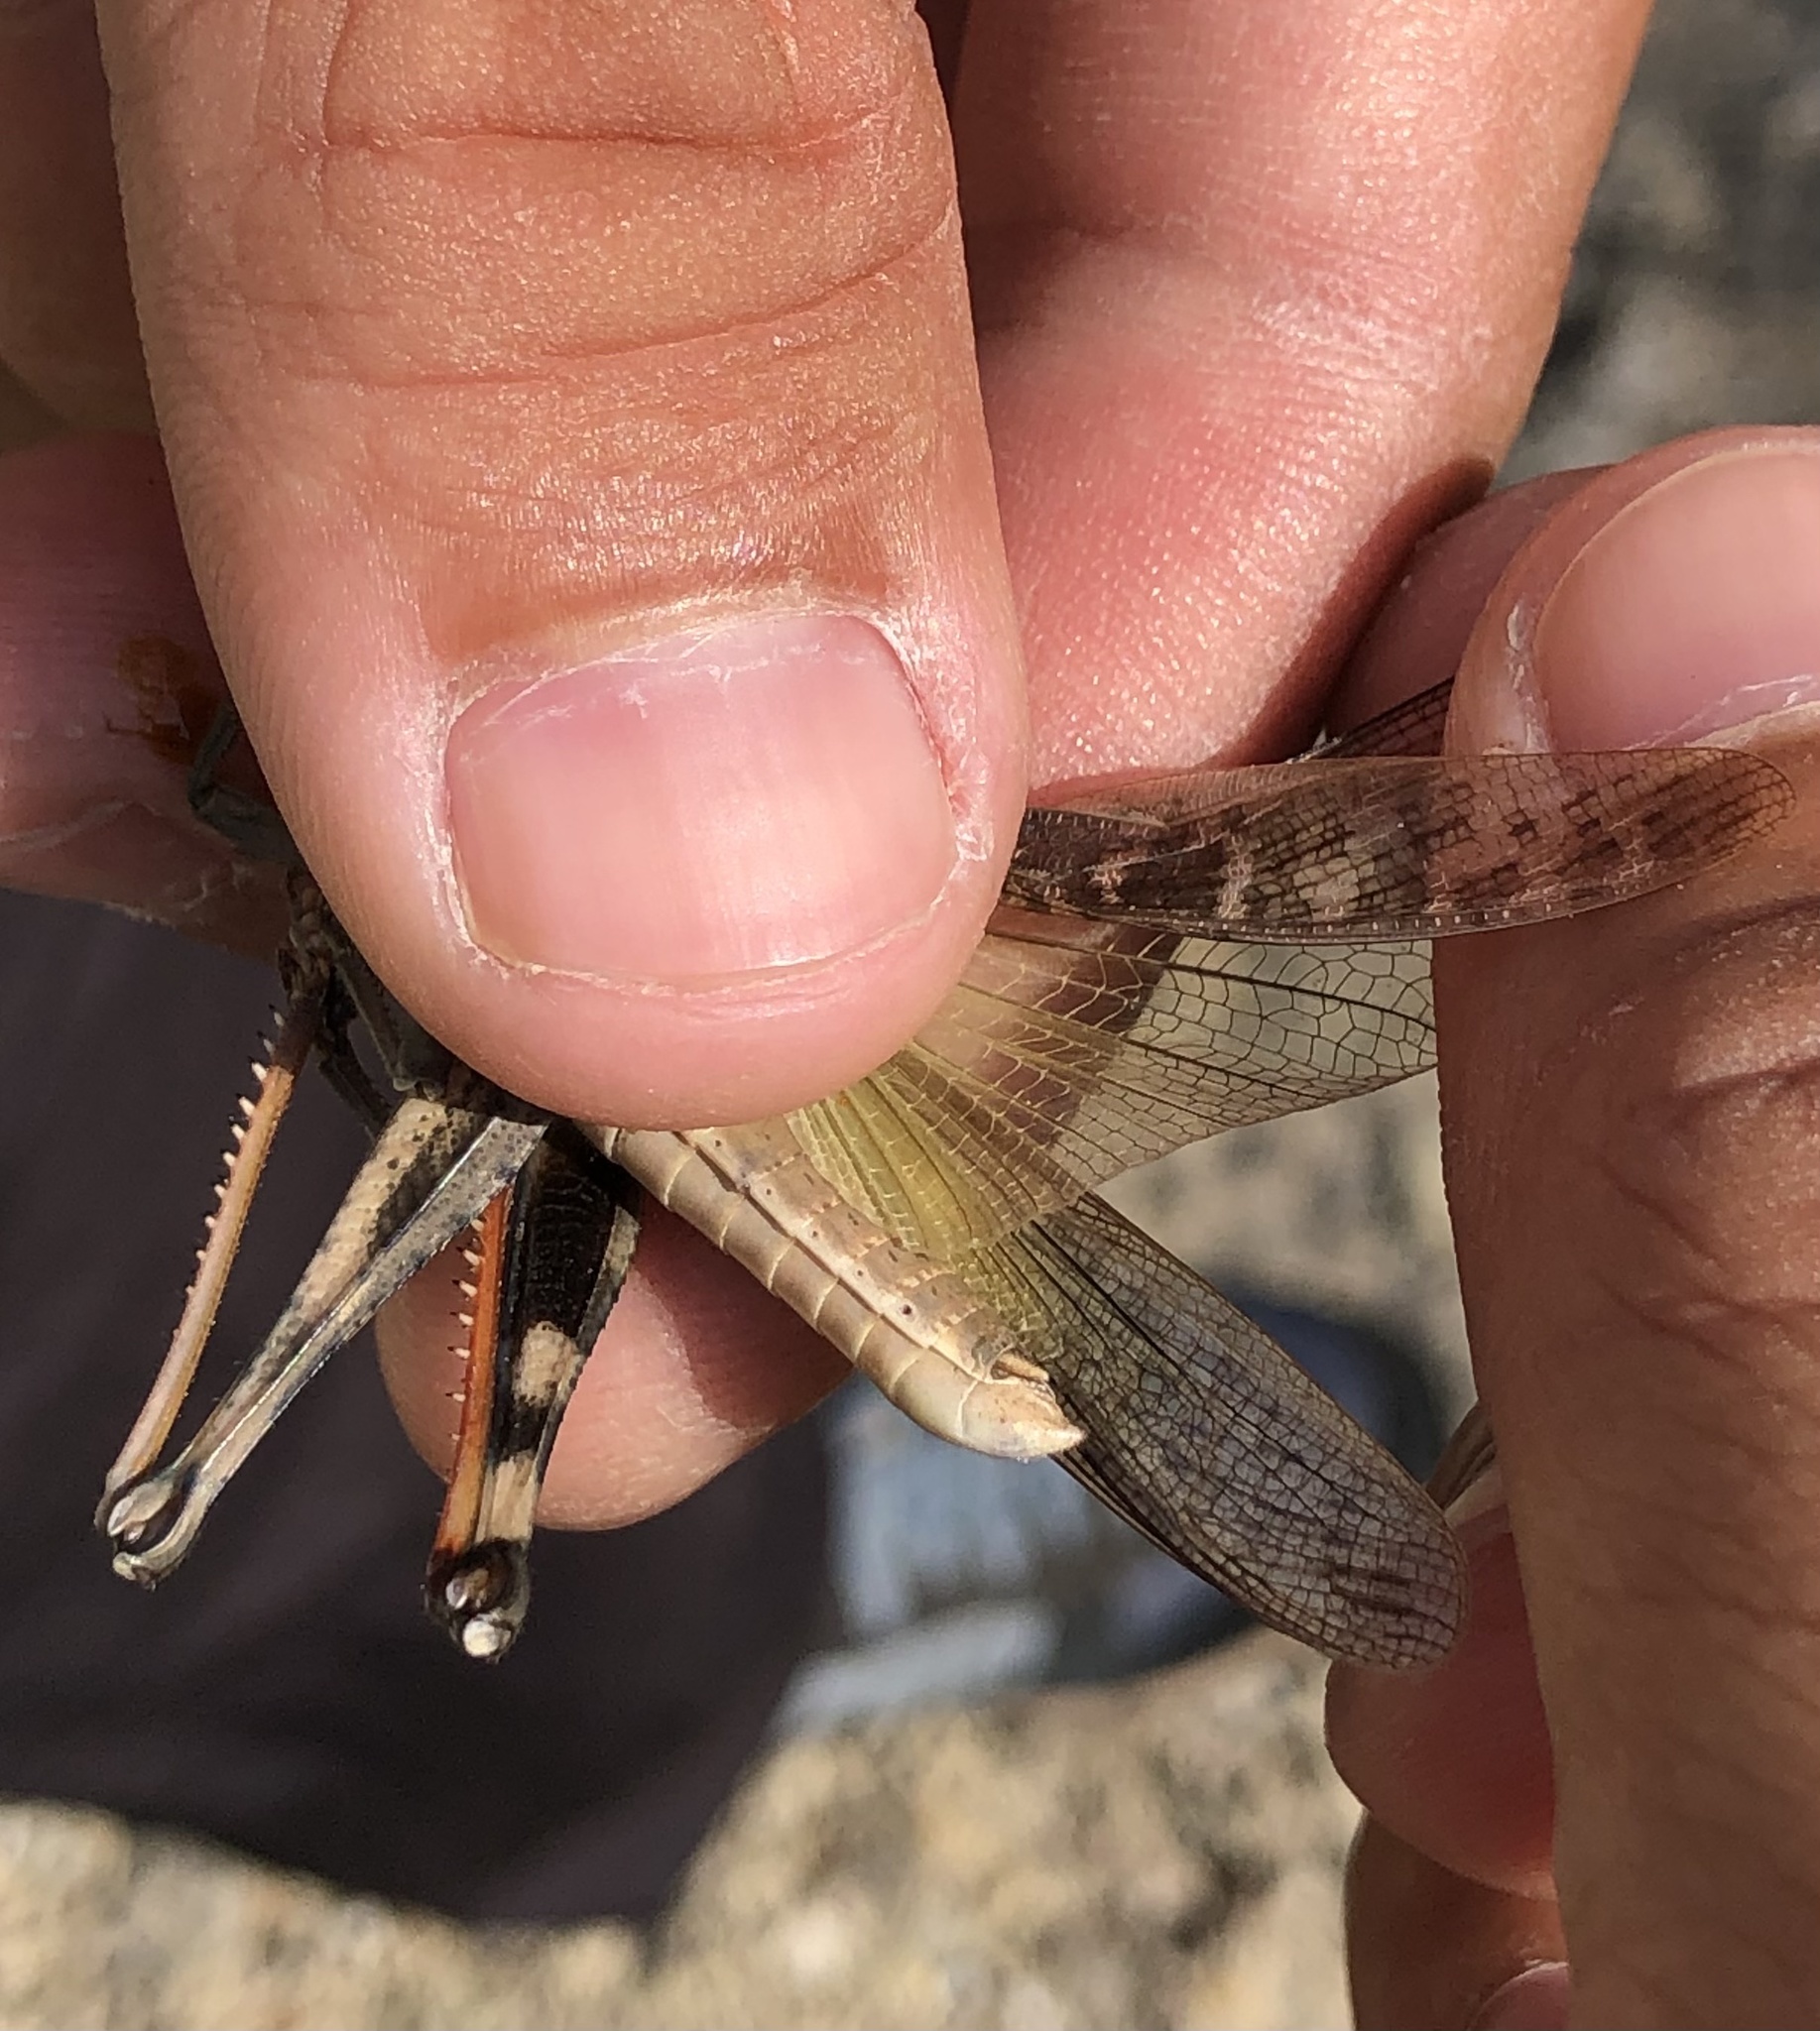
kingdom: Animalia
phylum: Arthropoda
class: Insecta
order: Orthoptera
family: Acrididae
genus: Locusta
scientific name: Locusta migratoria
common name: Migratory locust
